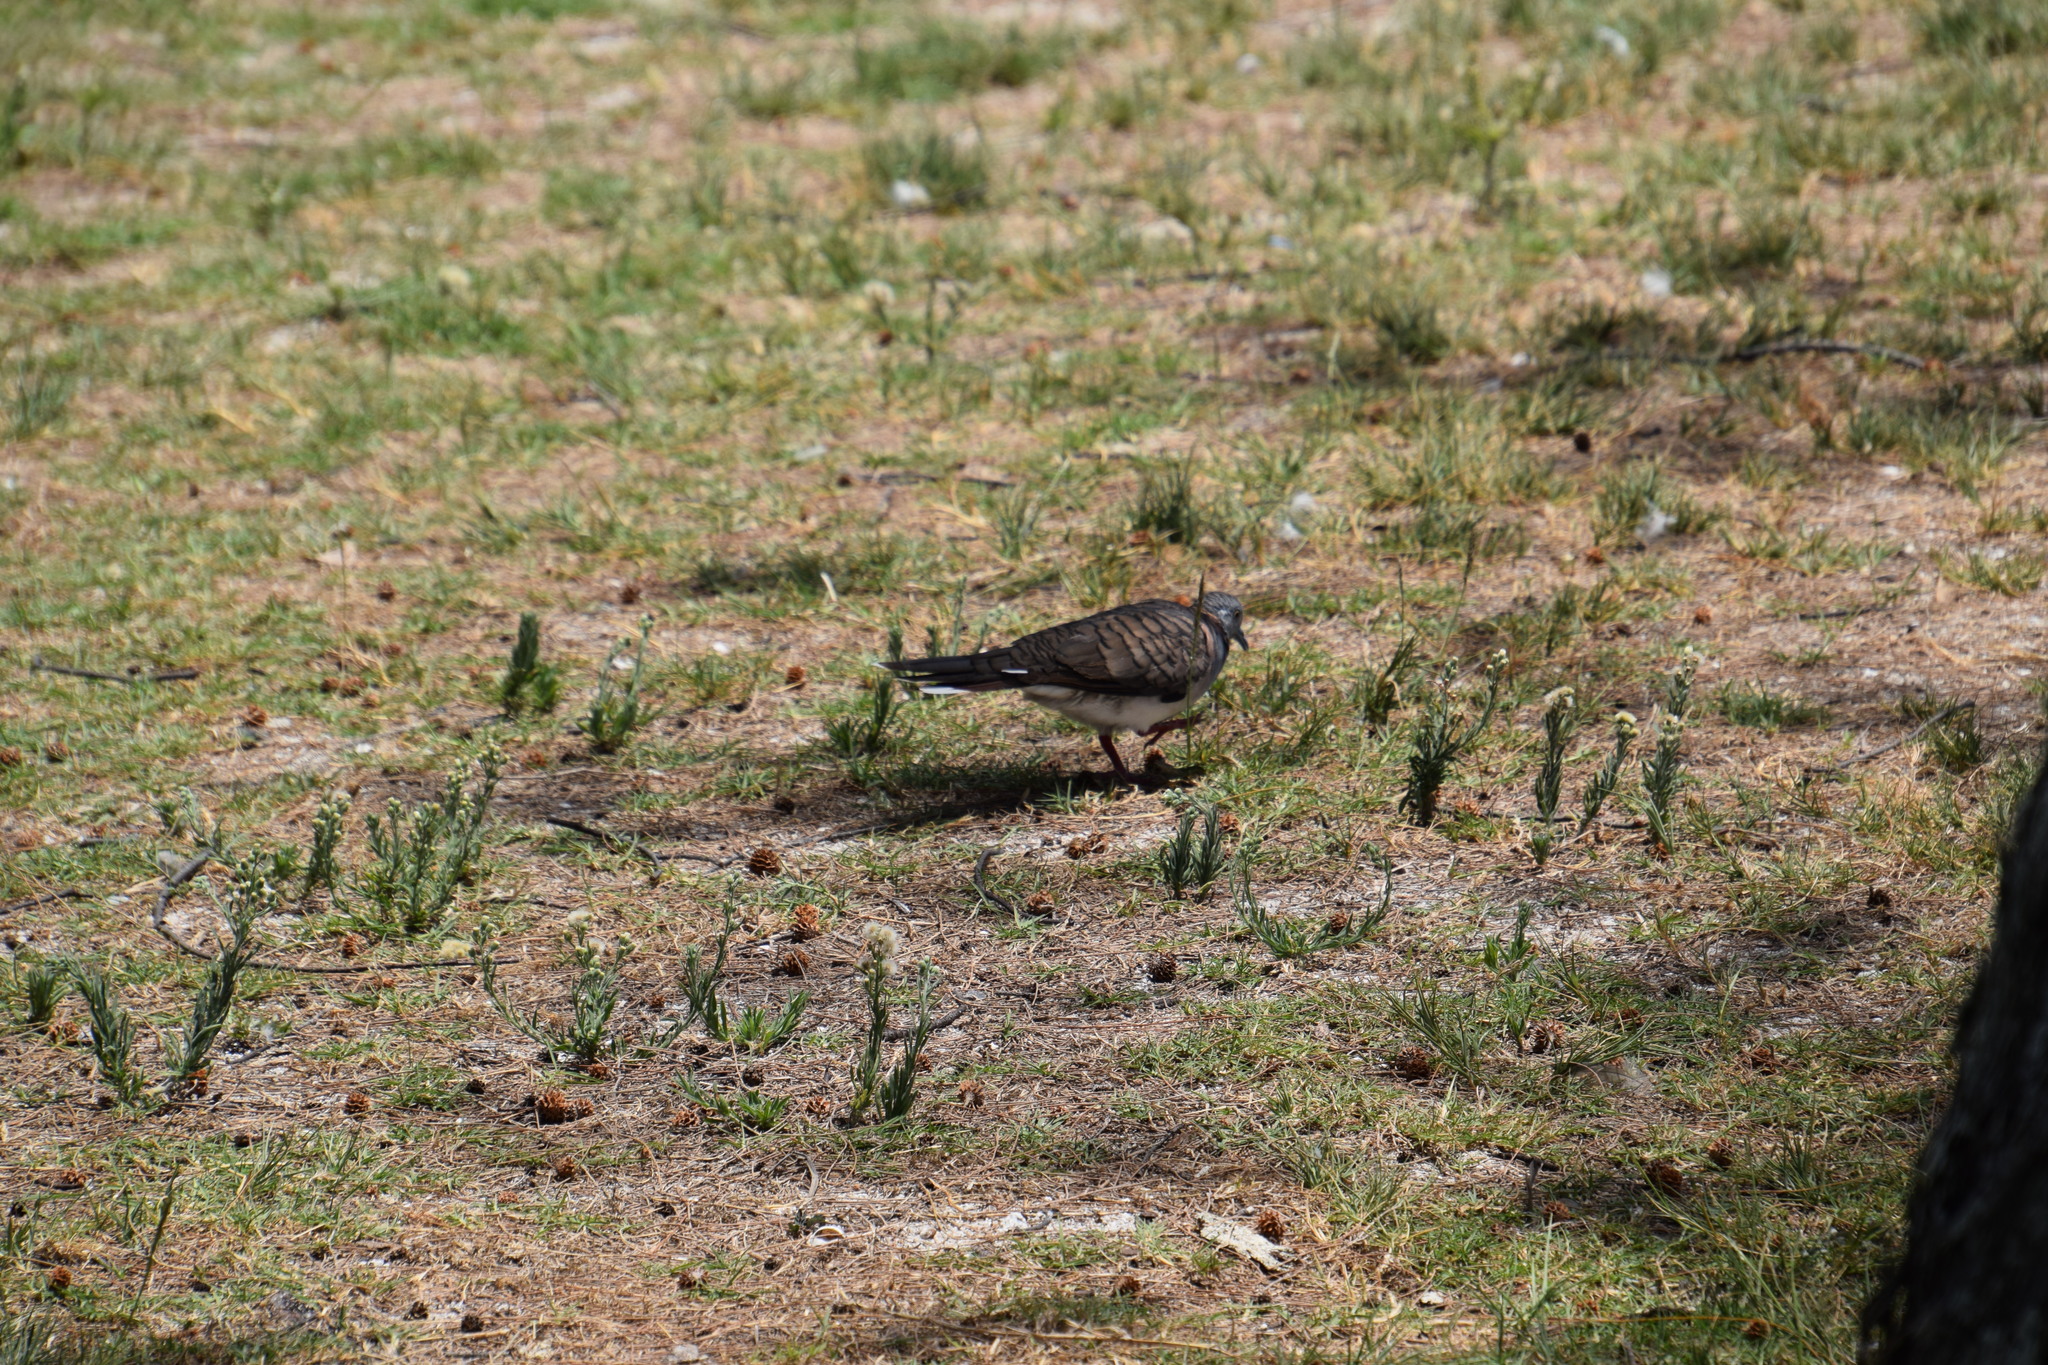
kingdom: Animalia
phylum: Chordata
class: Aves
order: Columbiformes
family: Columbidae
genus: Geopelia
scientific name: Geopelia humeralis
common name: Bar-shouldered dove
